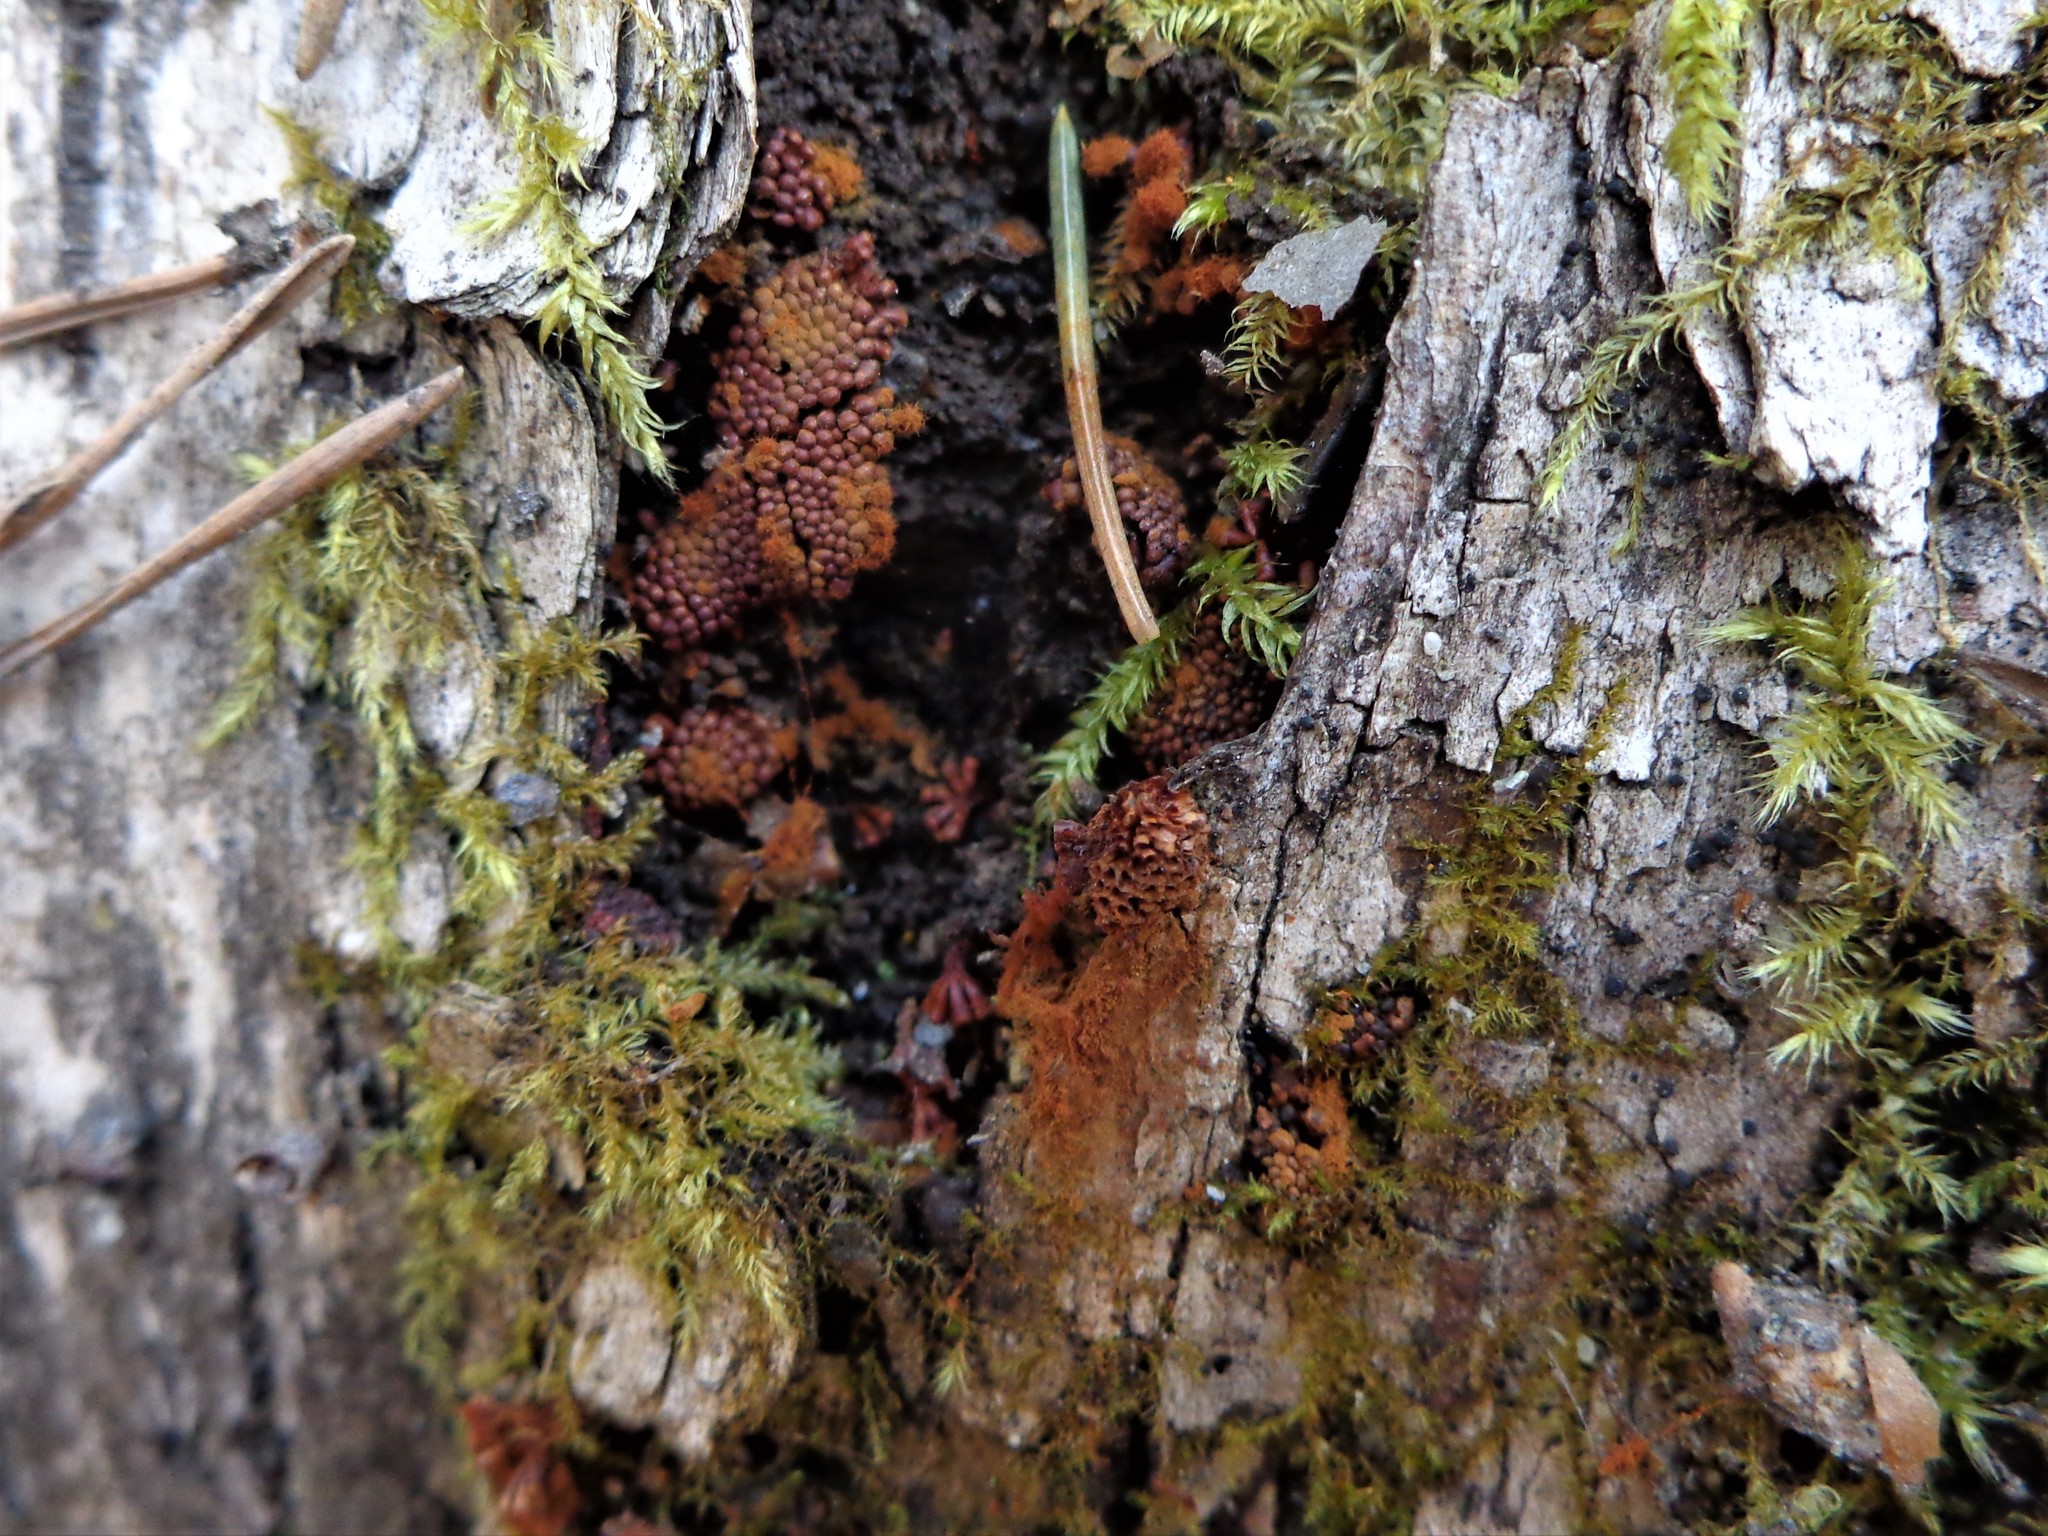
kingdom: Protozoa
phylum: Mycetozoa
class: Myxomycetes
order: Trichiales
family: Trichiaceae
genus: Metatrichia
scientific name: Metatrichia vesparia
